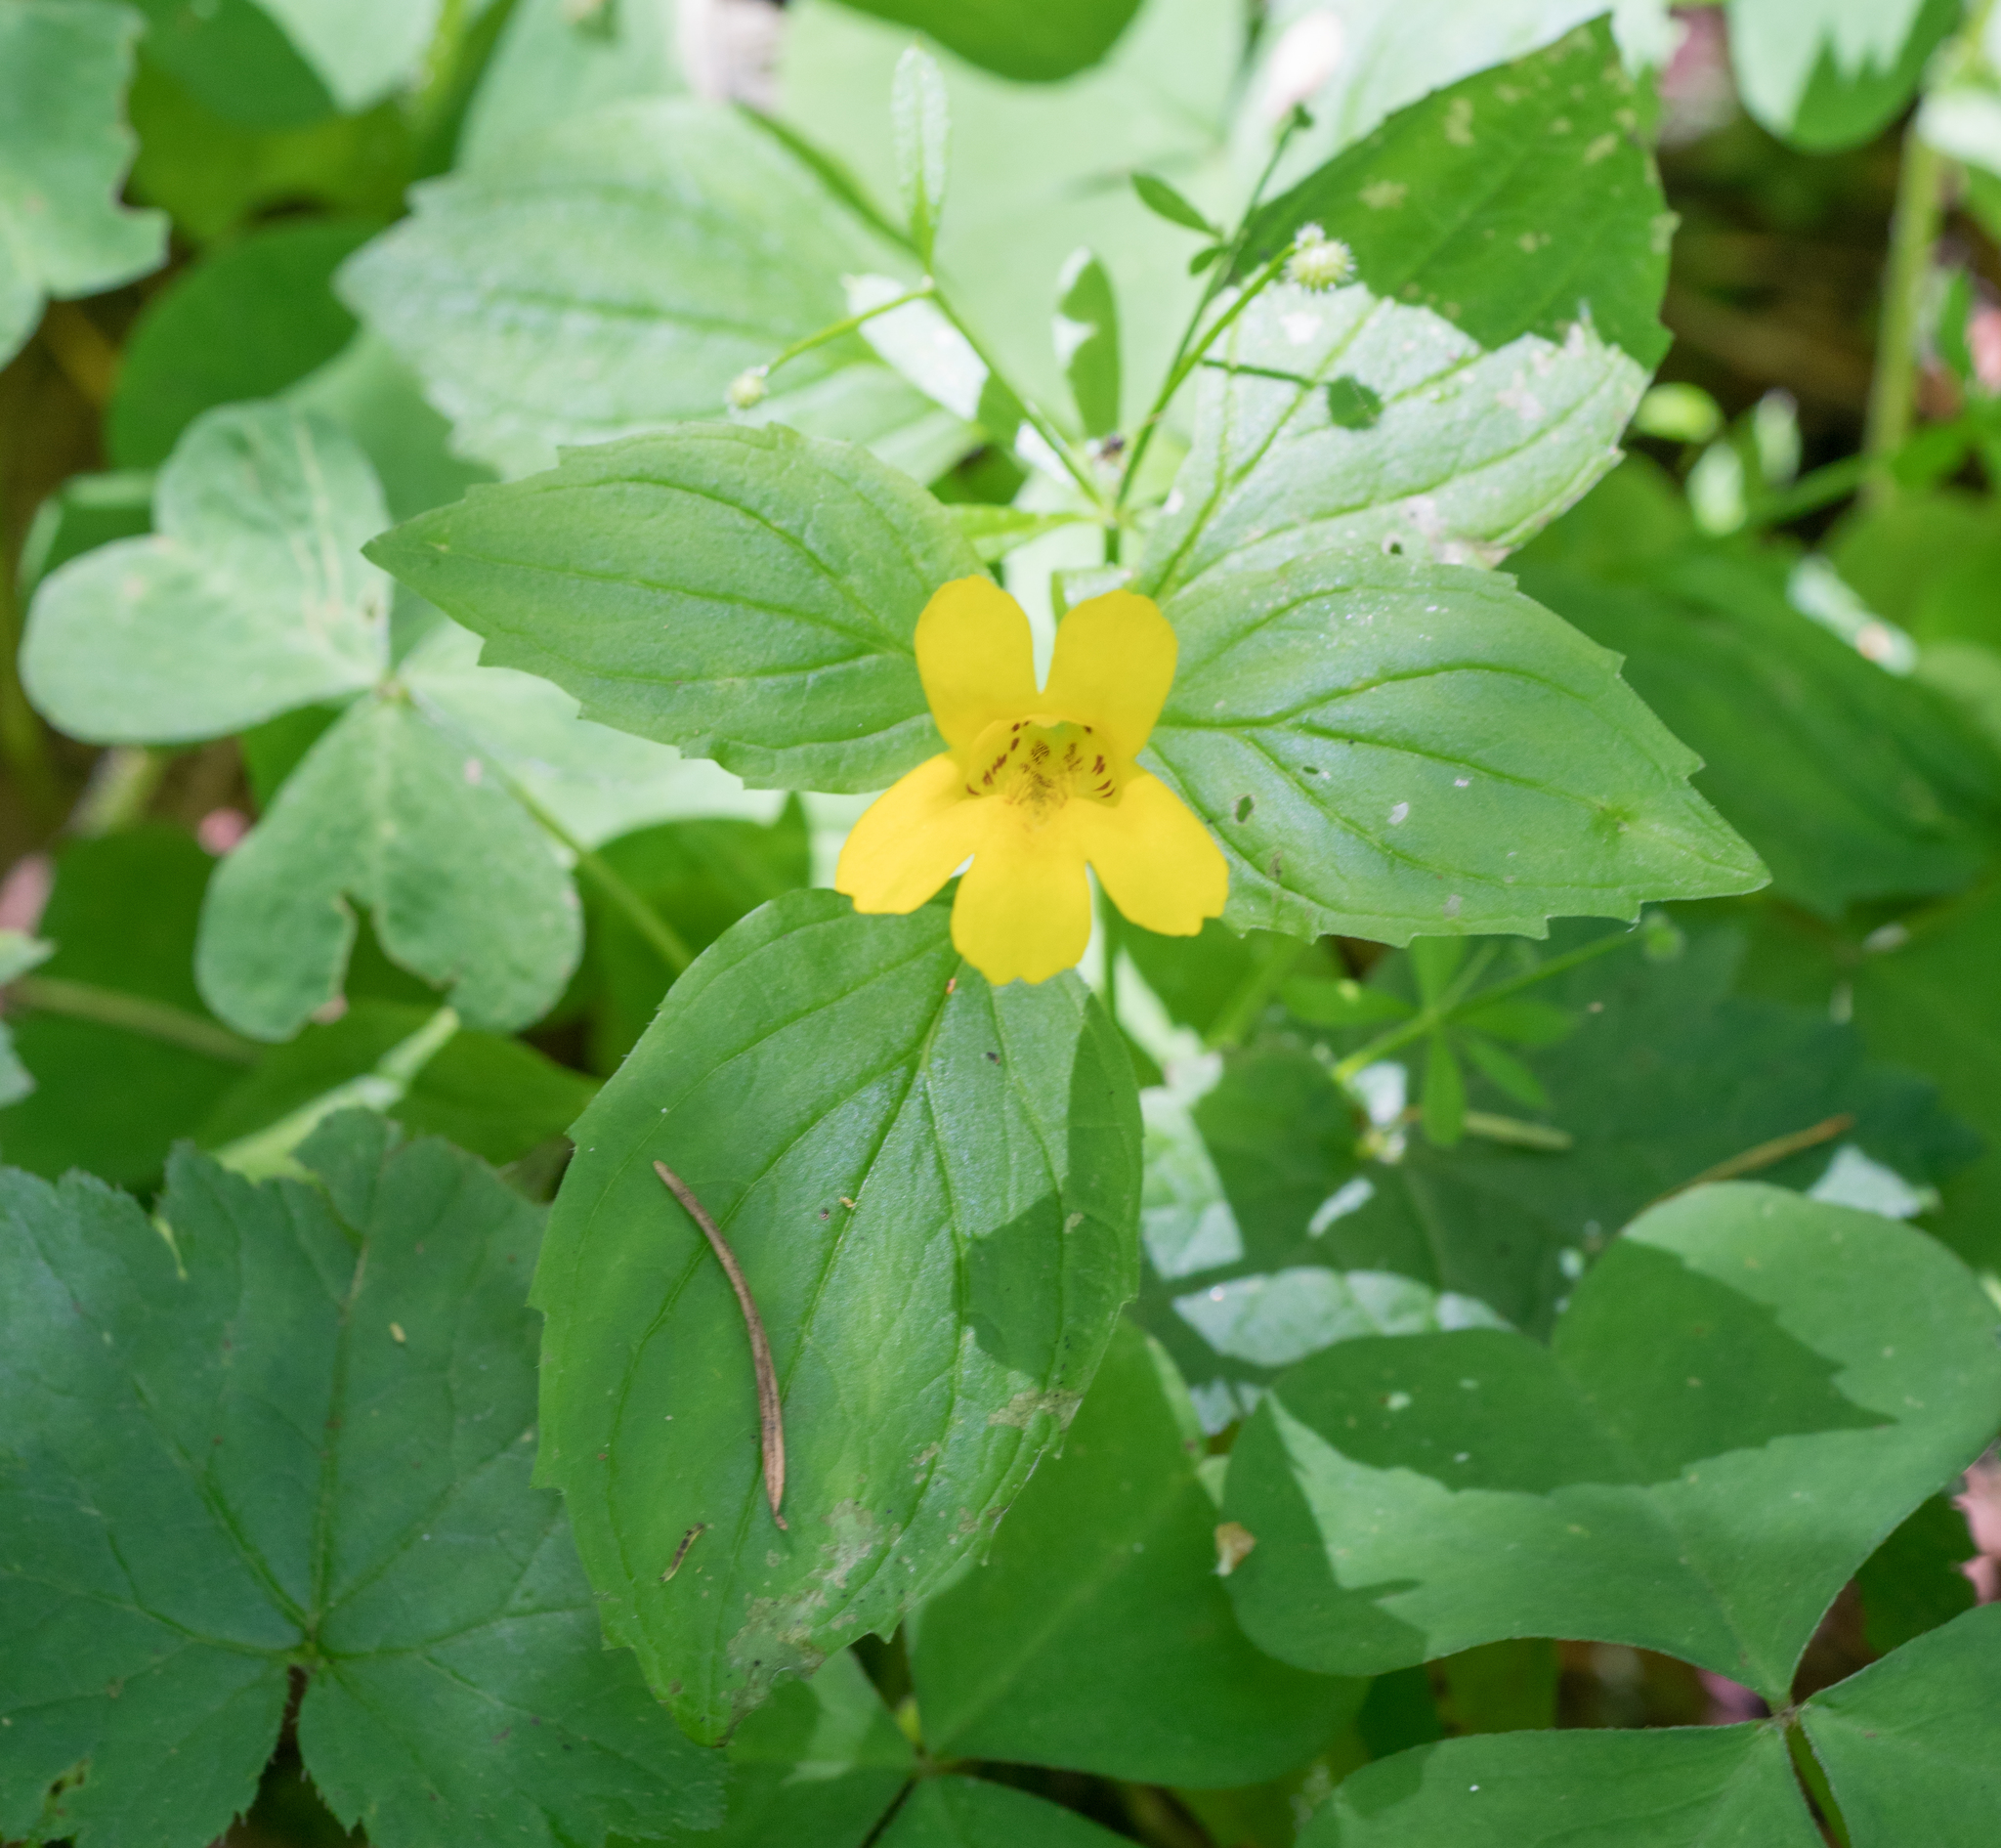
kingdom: Plantae
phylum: Tracheophyta
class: Magnoliopsida
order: Lamiales
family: Phrymaceae
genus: Erythranthe
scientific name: Erythranthe dentata
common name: Coastal monkeyflower
